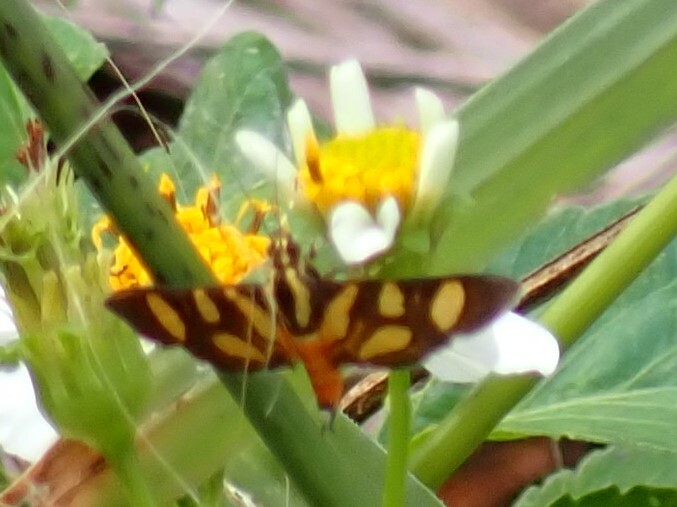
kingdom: Animalia
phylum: Arthropoda
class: Insecta
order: Lepidoptera
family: Crambidae
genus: Syngamia
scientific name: Syngamia florella
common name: Orange-spotted flower moth
